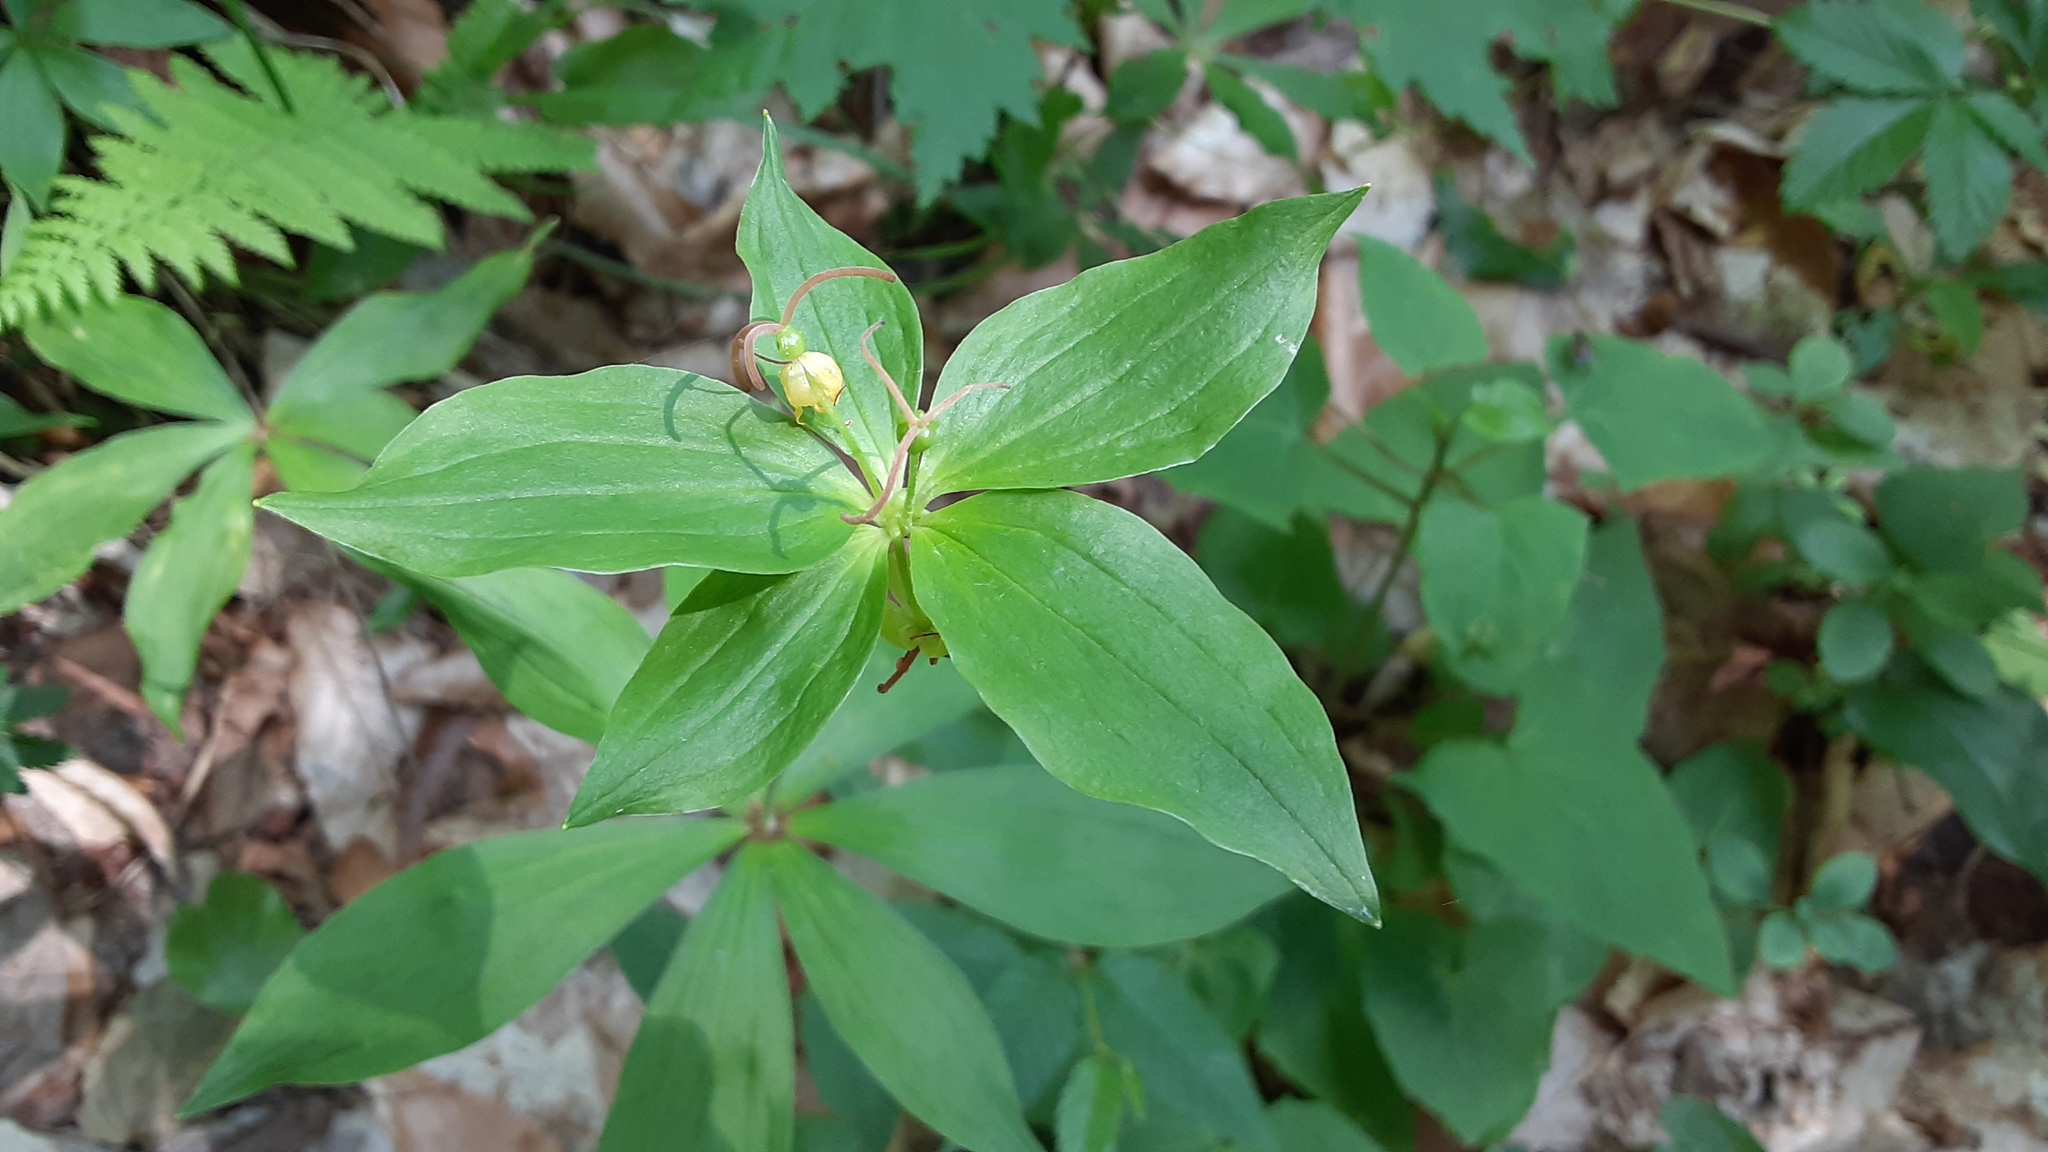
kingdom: Plantae
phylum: Tracheophyta
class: Liliopsida
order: Liliales
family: Liliaceae
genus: Medeola
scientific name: Medeola virginiana
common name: Indian cucumber-root
